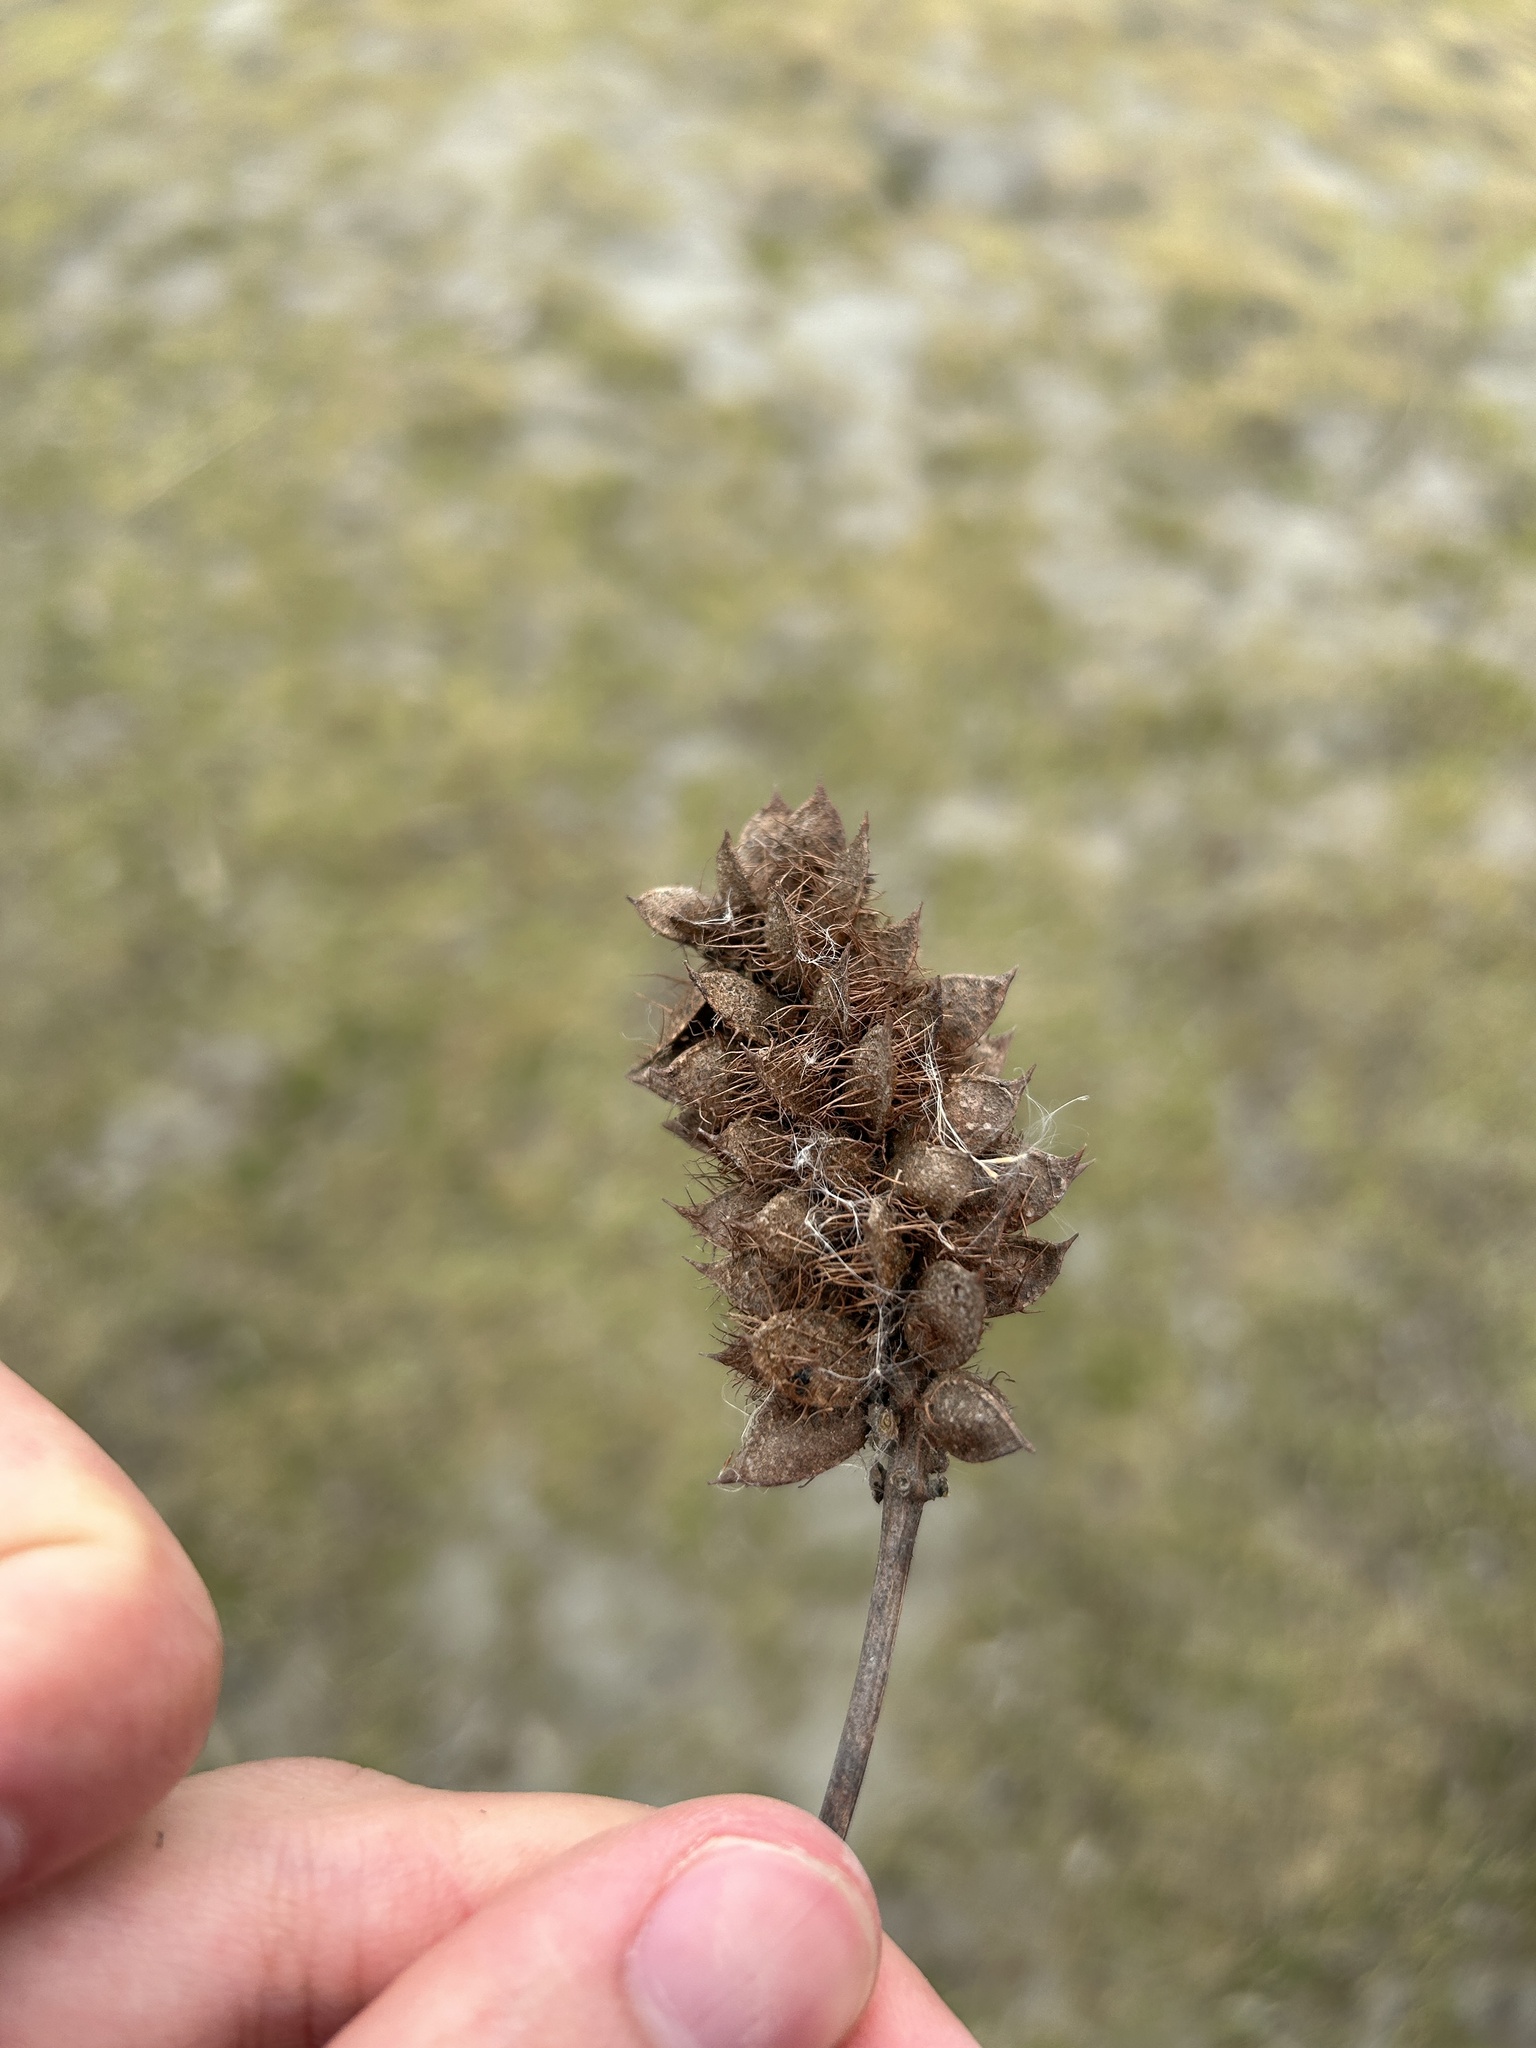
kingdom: Plantae
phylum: Tracheophyta
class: Magnoliopsida
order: Fabales
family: Fabaceae
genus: Glycyrrhiza
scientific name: Glycyrrhiza echinata
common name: German liquorice
